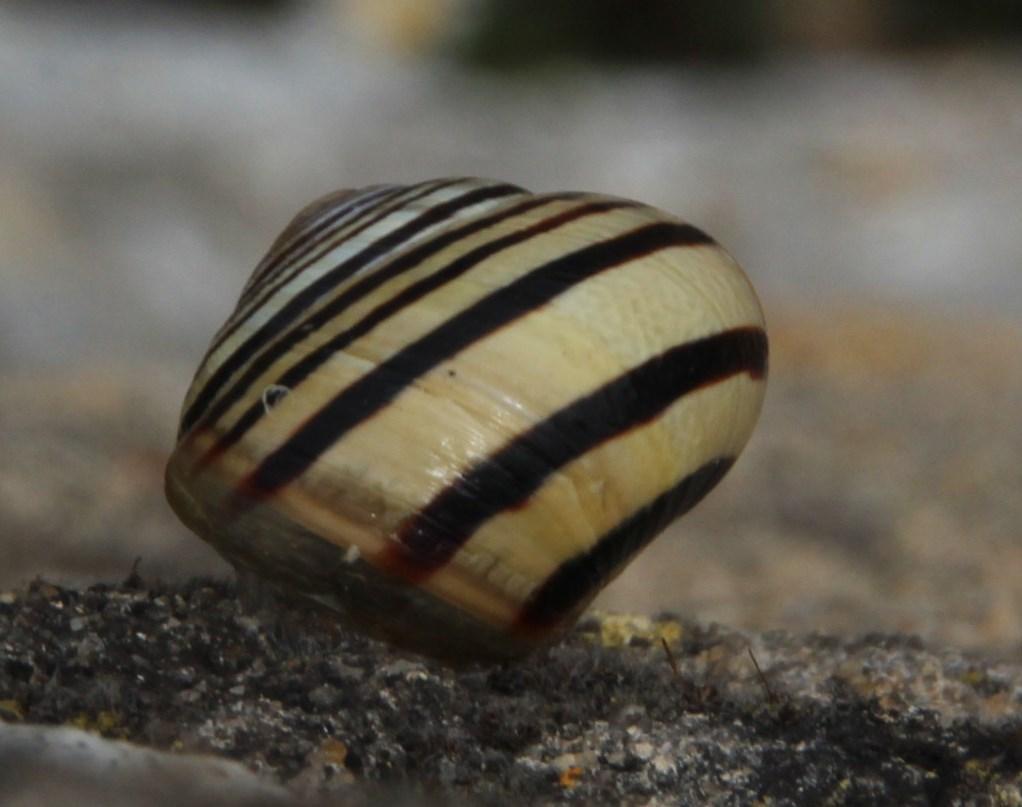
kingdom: Animalia
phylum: Mollusca
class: Gastropoda
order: Stylommatophora
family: Helicidae
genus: Cepaea
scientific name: Cepaea nemoralis
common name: Grovesnail
